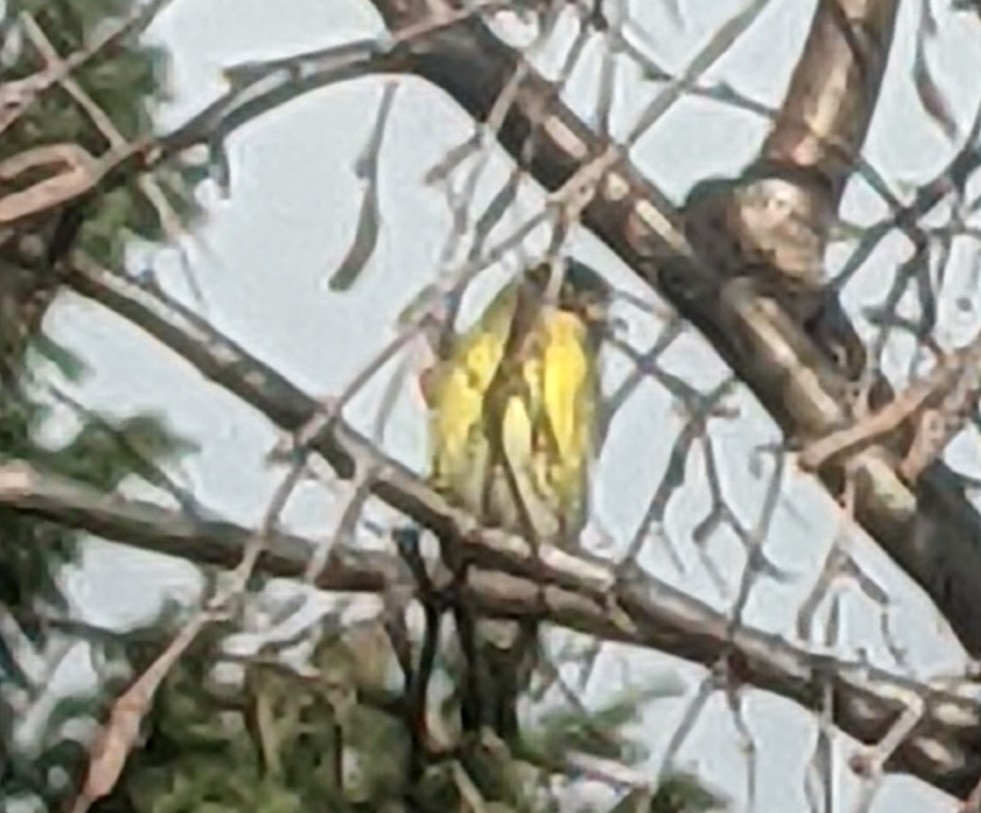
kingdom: Animalia
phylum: Chordata
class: Aves
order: Passeriformes
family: Fringillidae
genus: Spinus
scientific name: Spinus spinus
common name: Eurasian siskin
